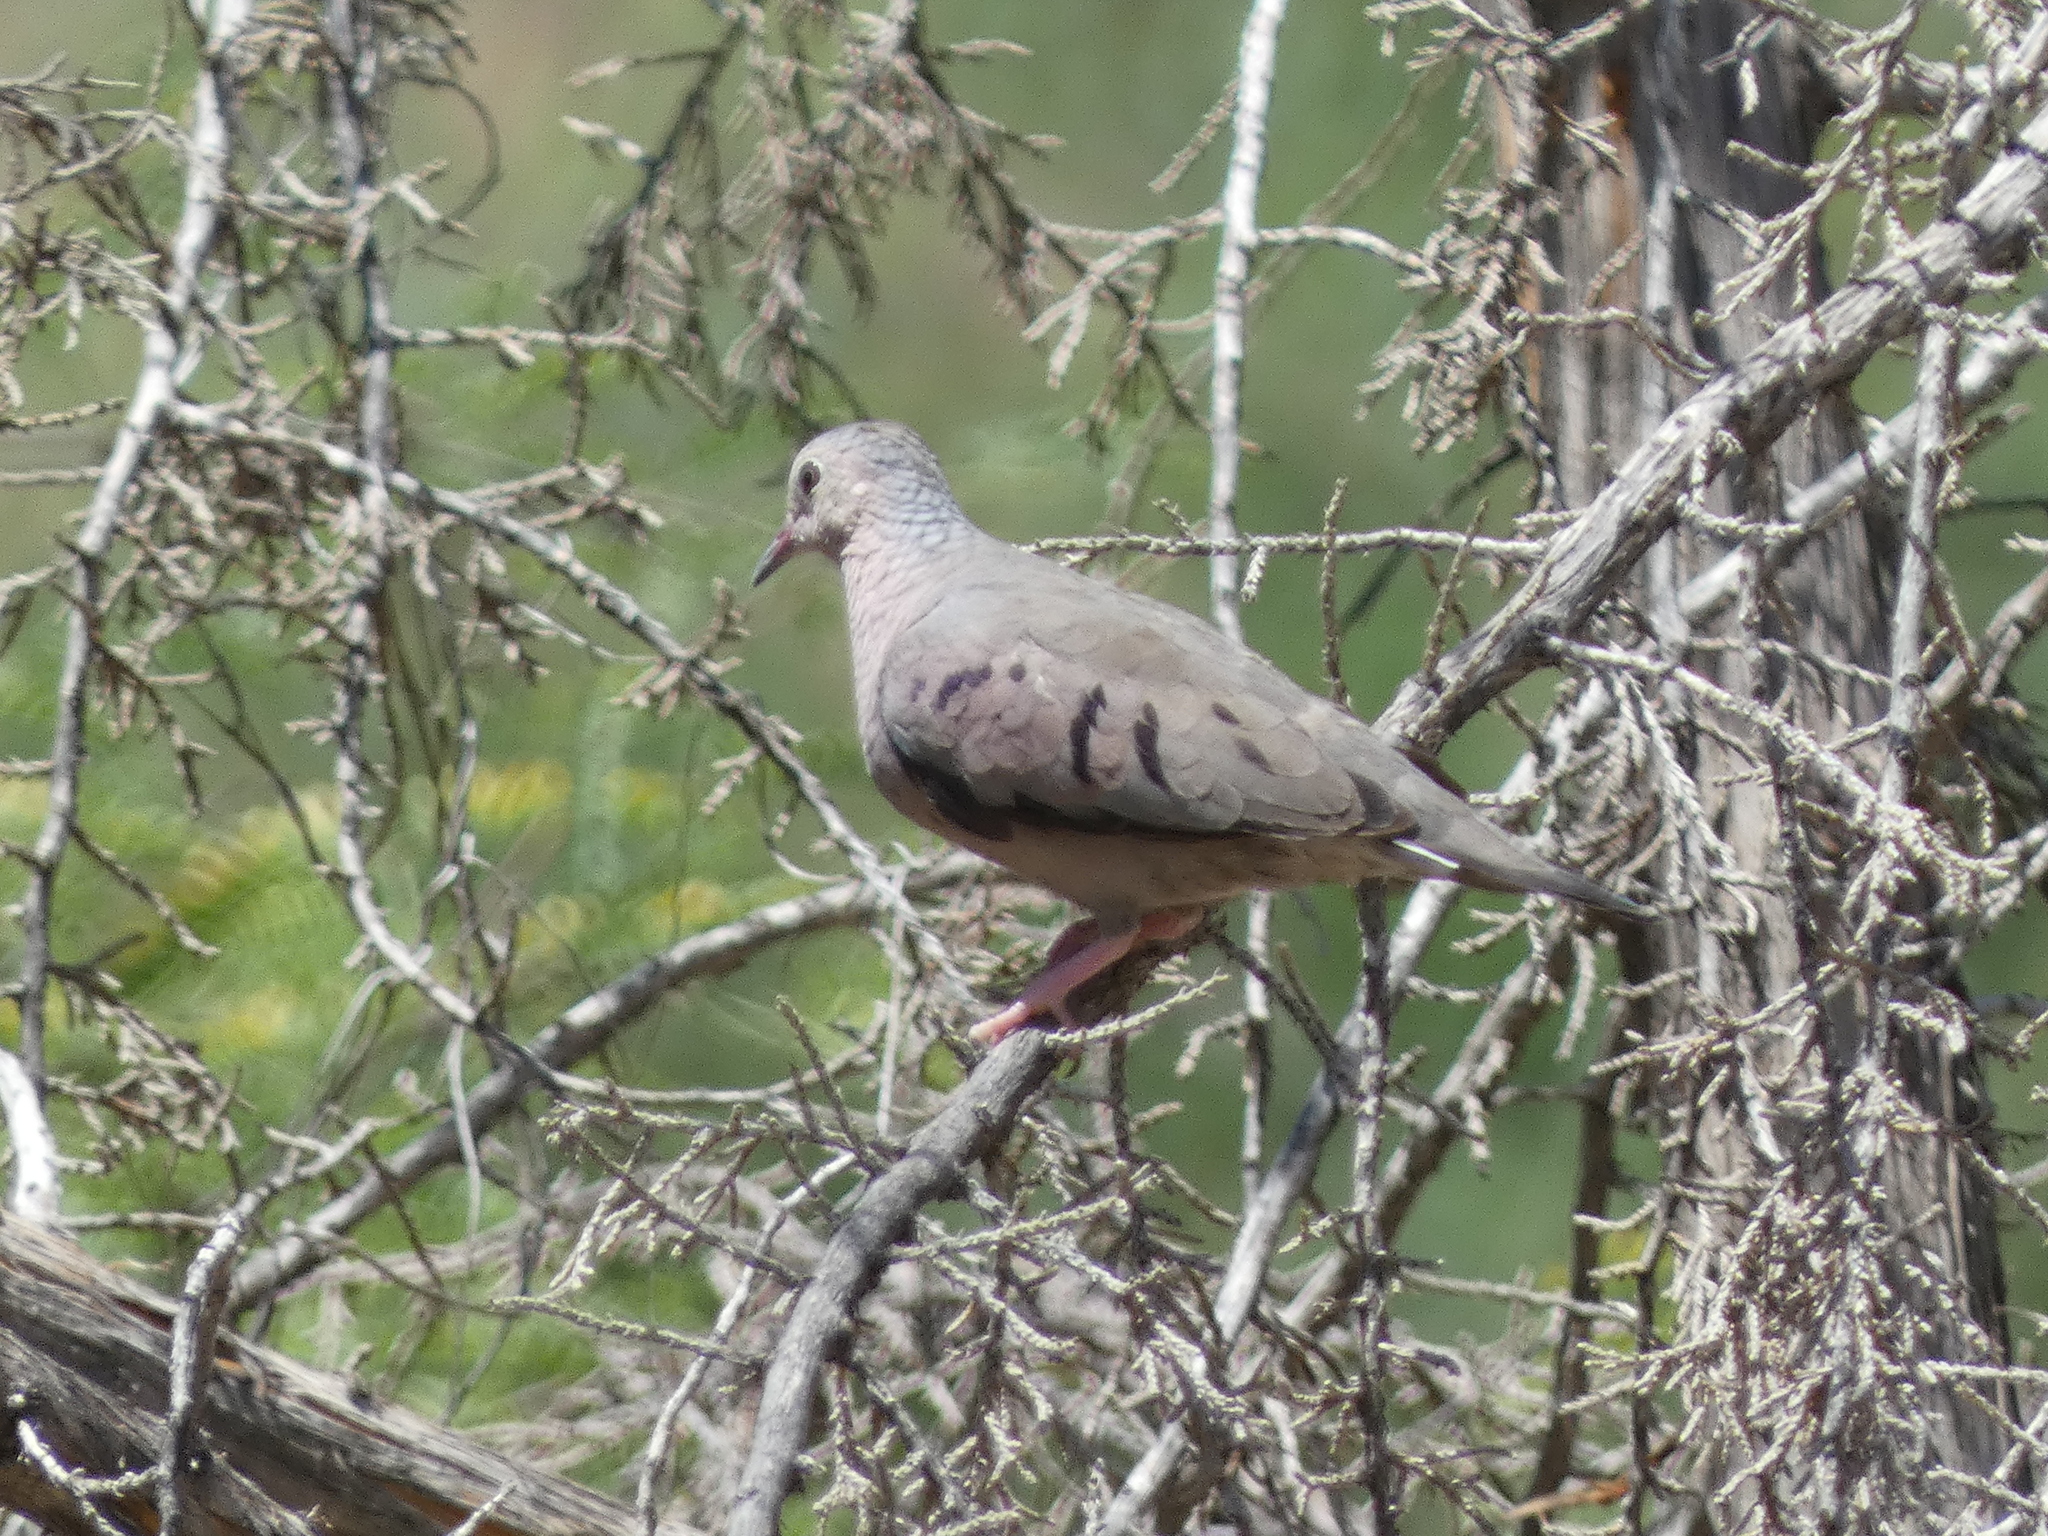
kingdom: Animalia
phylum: Chordata
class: Aves
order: Columbiformes
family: Columbidae
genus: Columbina
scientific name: Columbina passerina
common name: Common ground-dove
